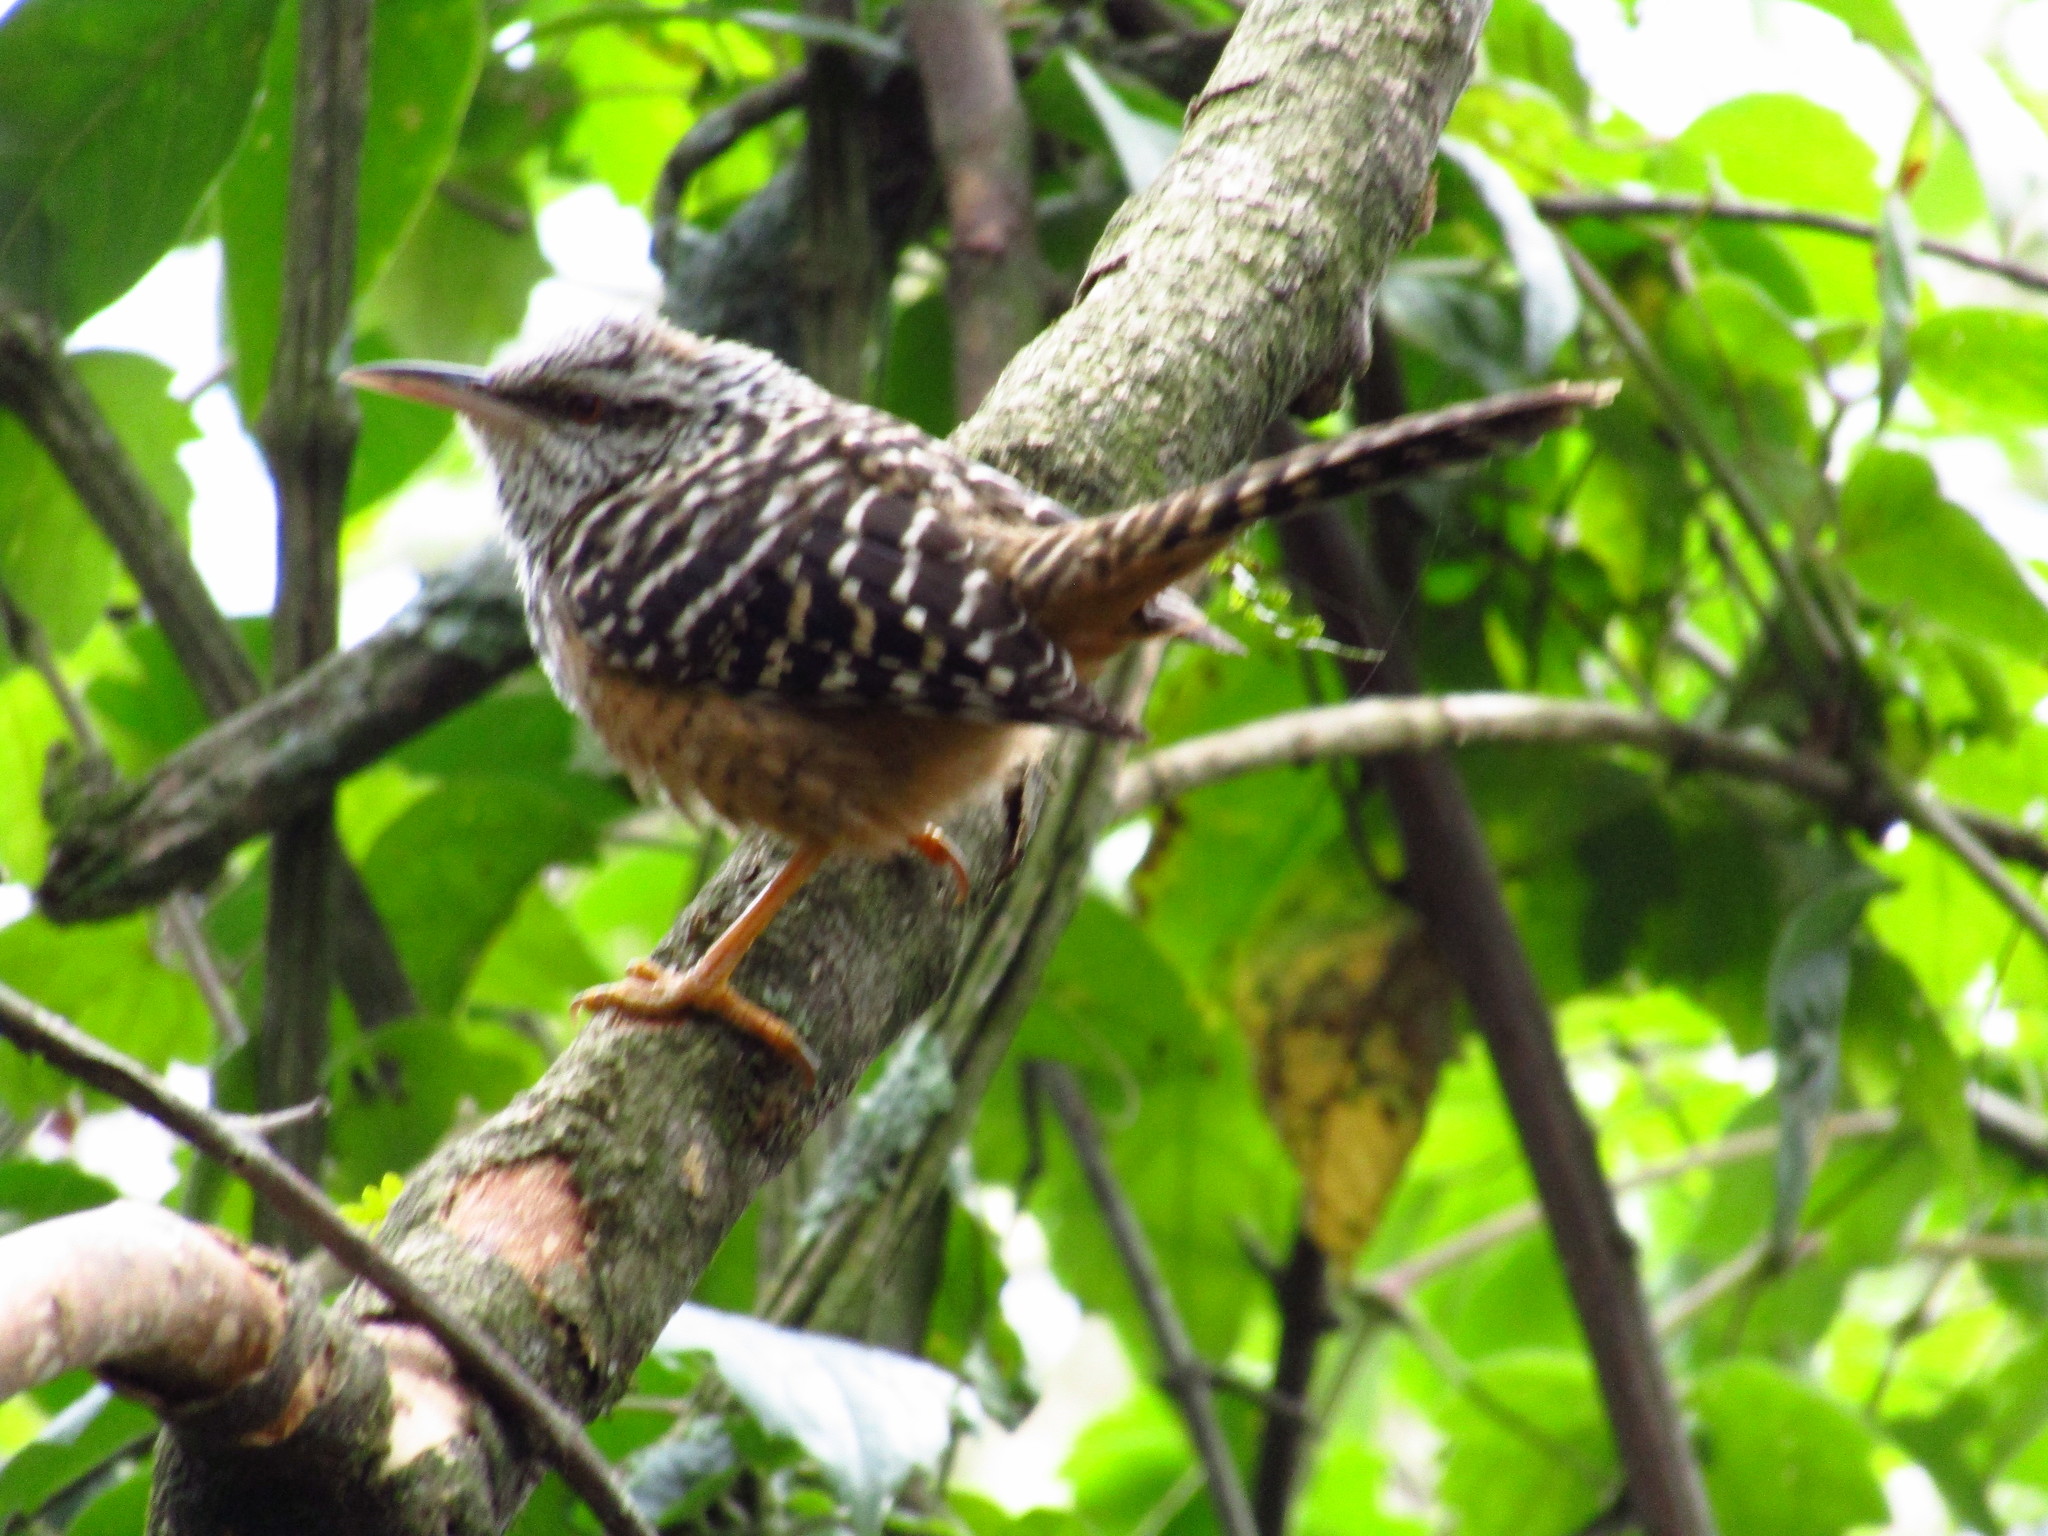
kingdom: Animalia
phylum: Chordata
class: Aves
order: Passeriformes
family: Troglodytidae
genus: Campylorhynchus
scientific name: Campylorhynchus zonatus
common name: Band-backed wren
